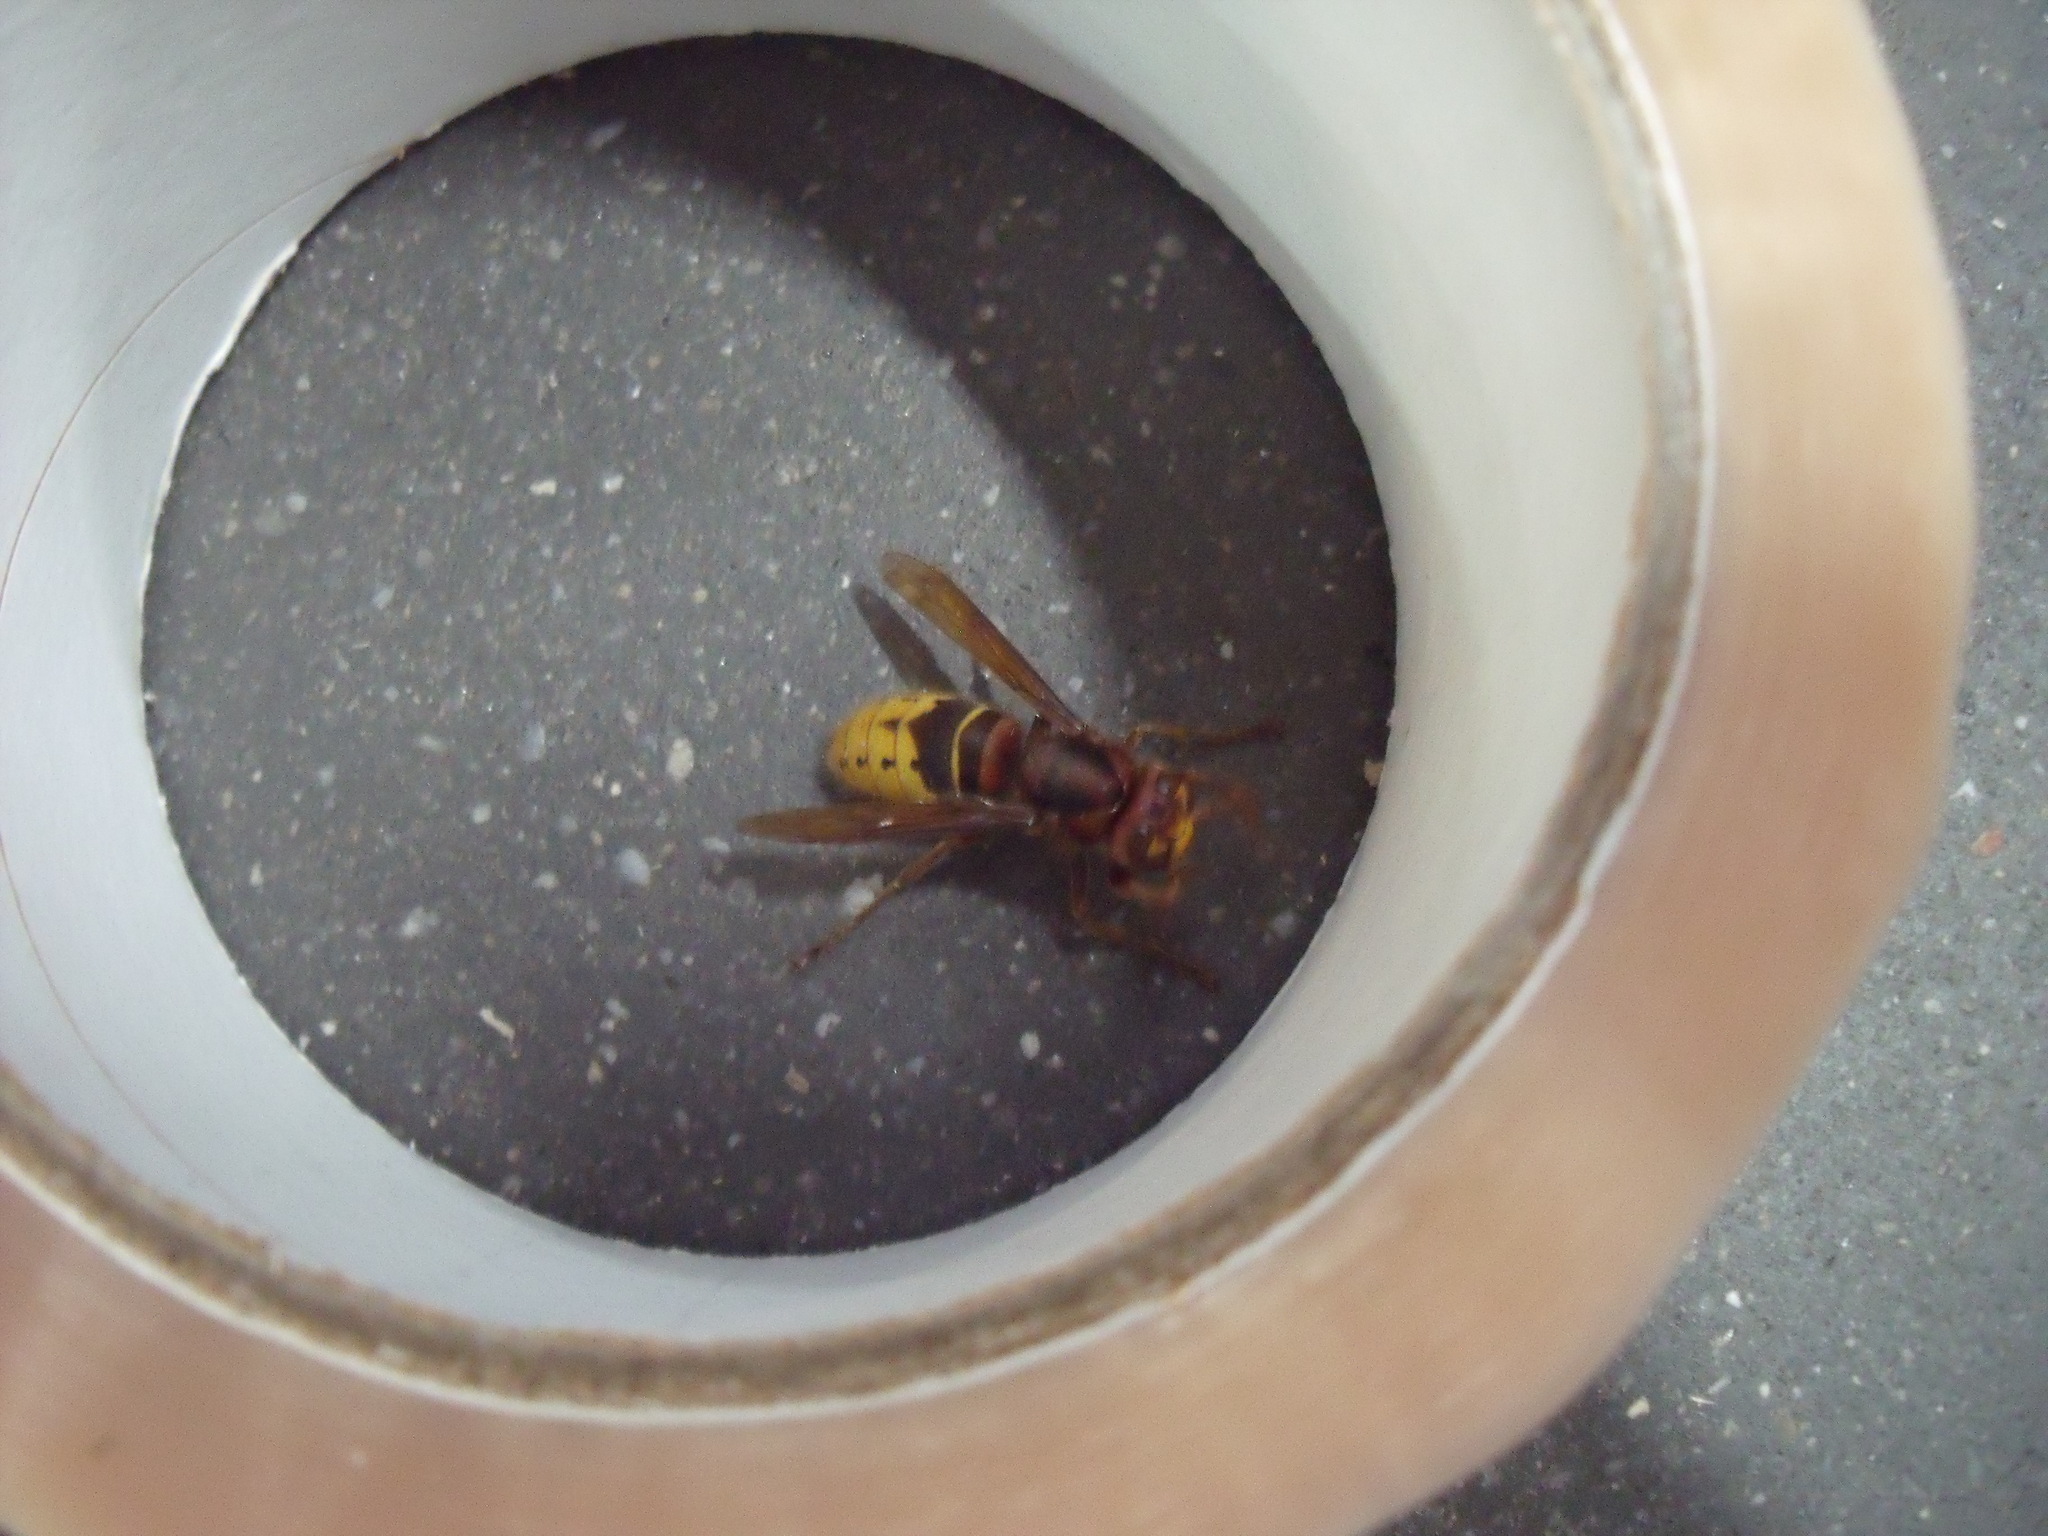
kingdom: Animalia
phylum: Arthropoda
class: Insecta
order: Hymenoptera
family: Vespidae
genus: Vespa
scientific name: Vespa crabro
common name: Hornet
